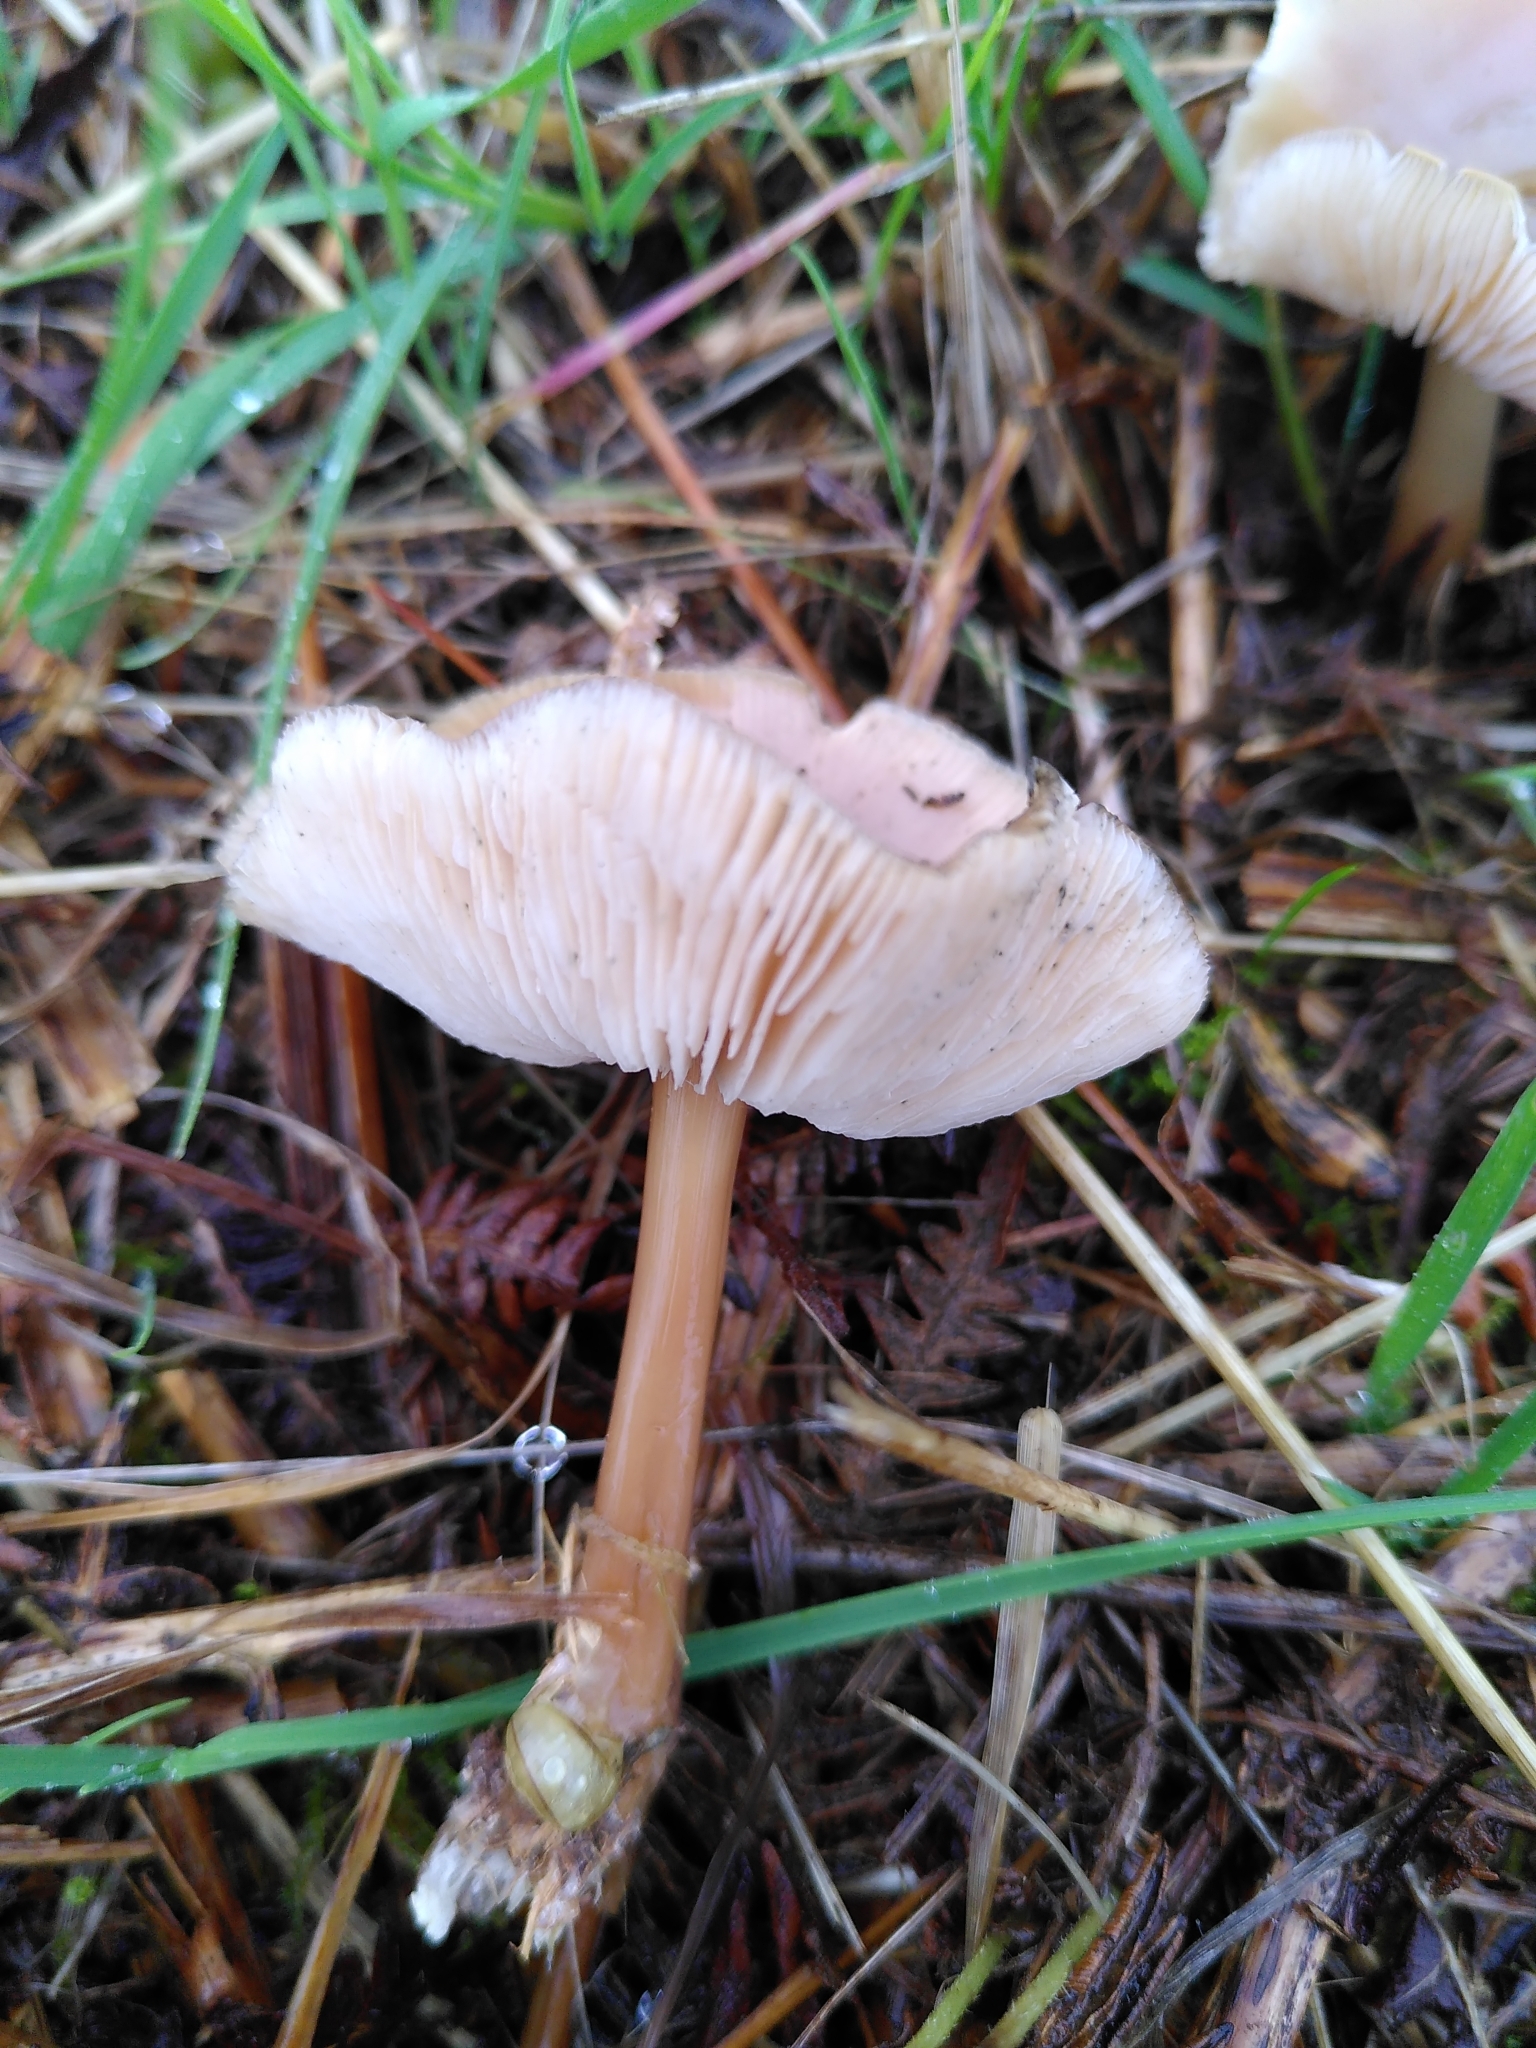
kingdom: Fungi
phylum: Basidiomycota
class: Agaricomycetes
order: Agaricales
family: Omphalotaceae
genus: Rhodocollybia
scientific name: Rhodocollybia butyracea
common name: Butter cap
